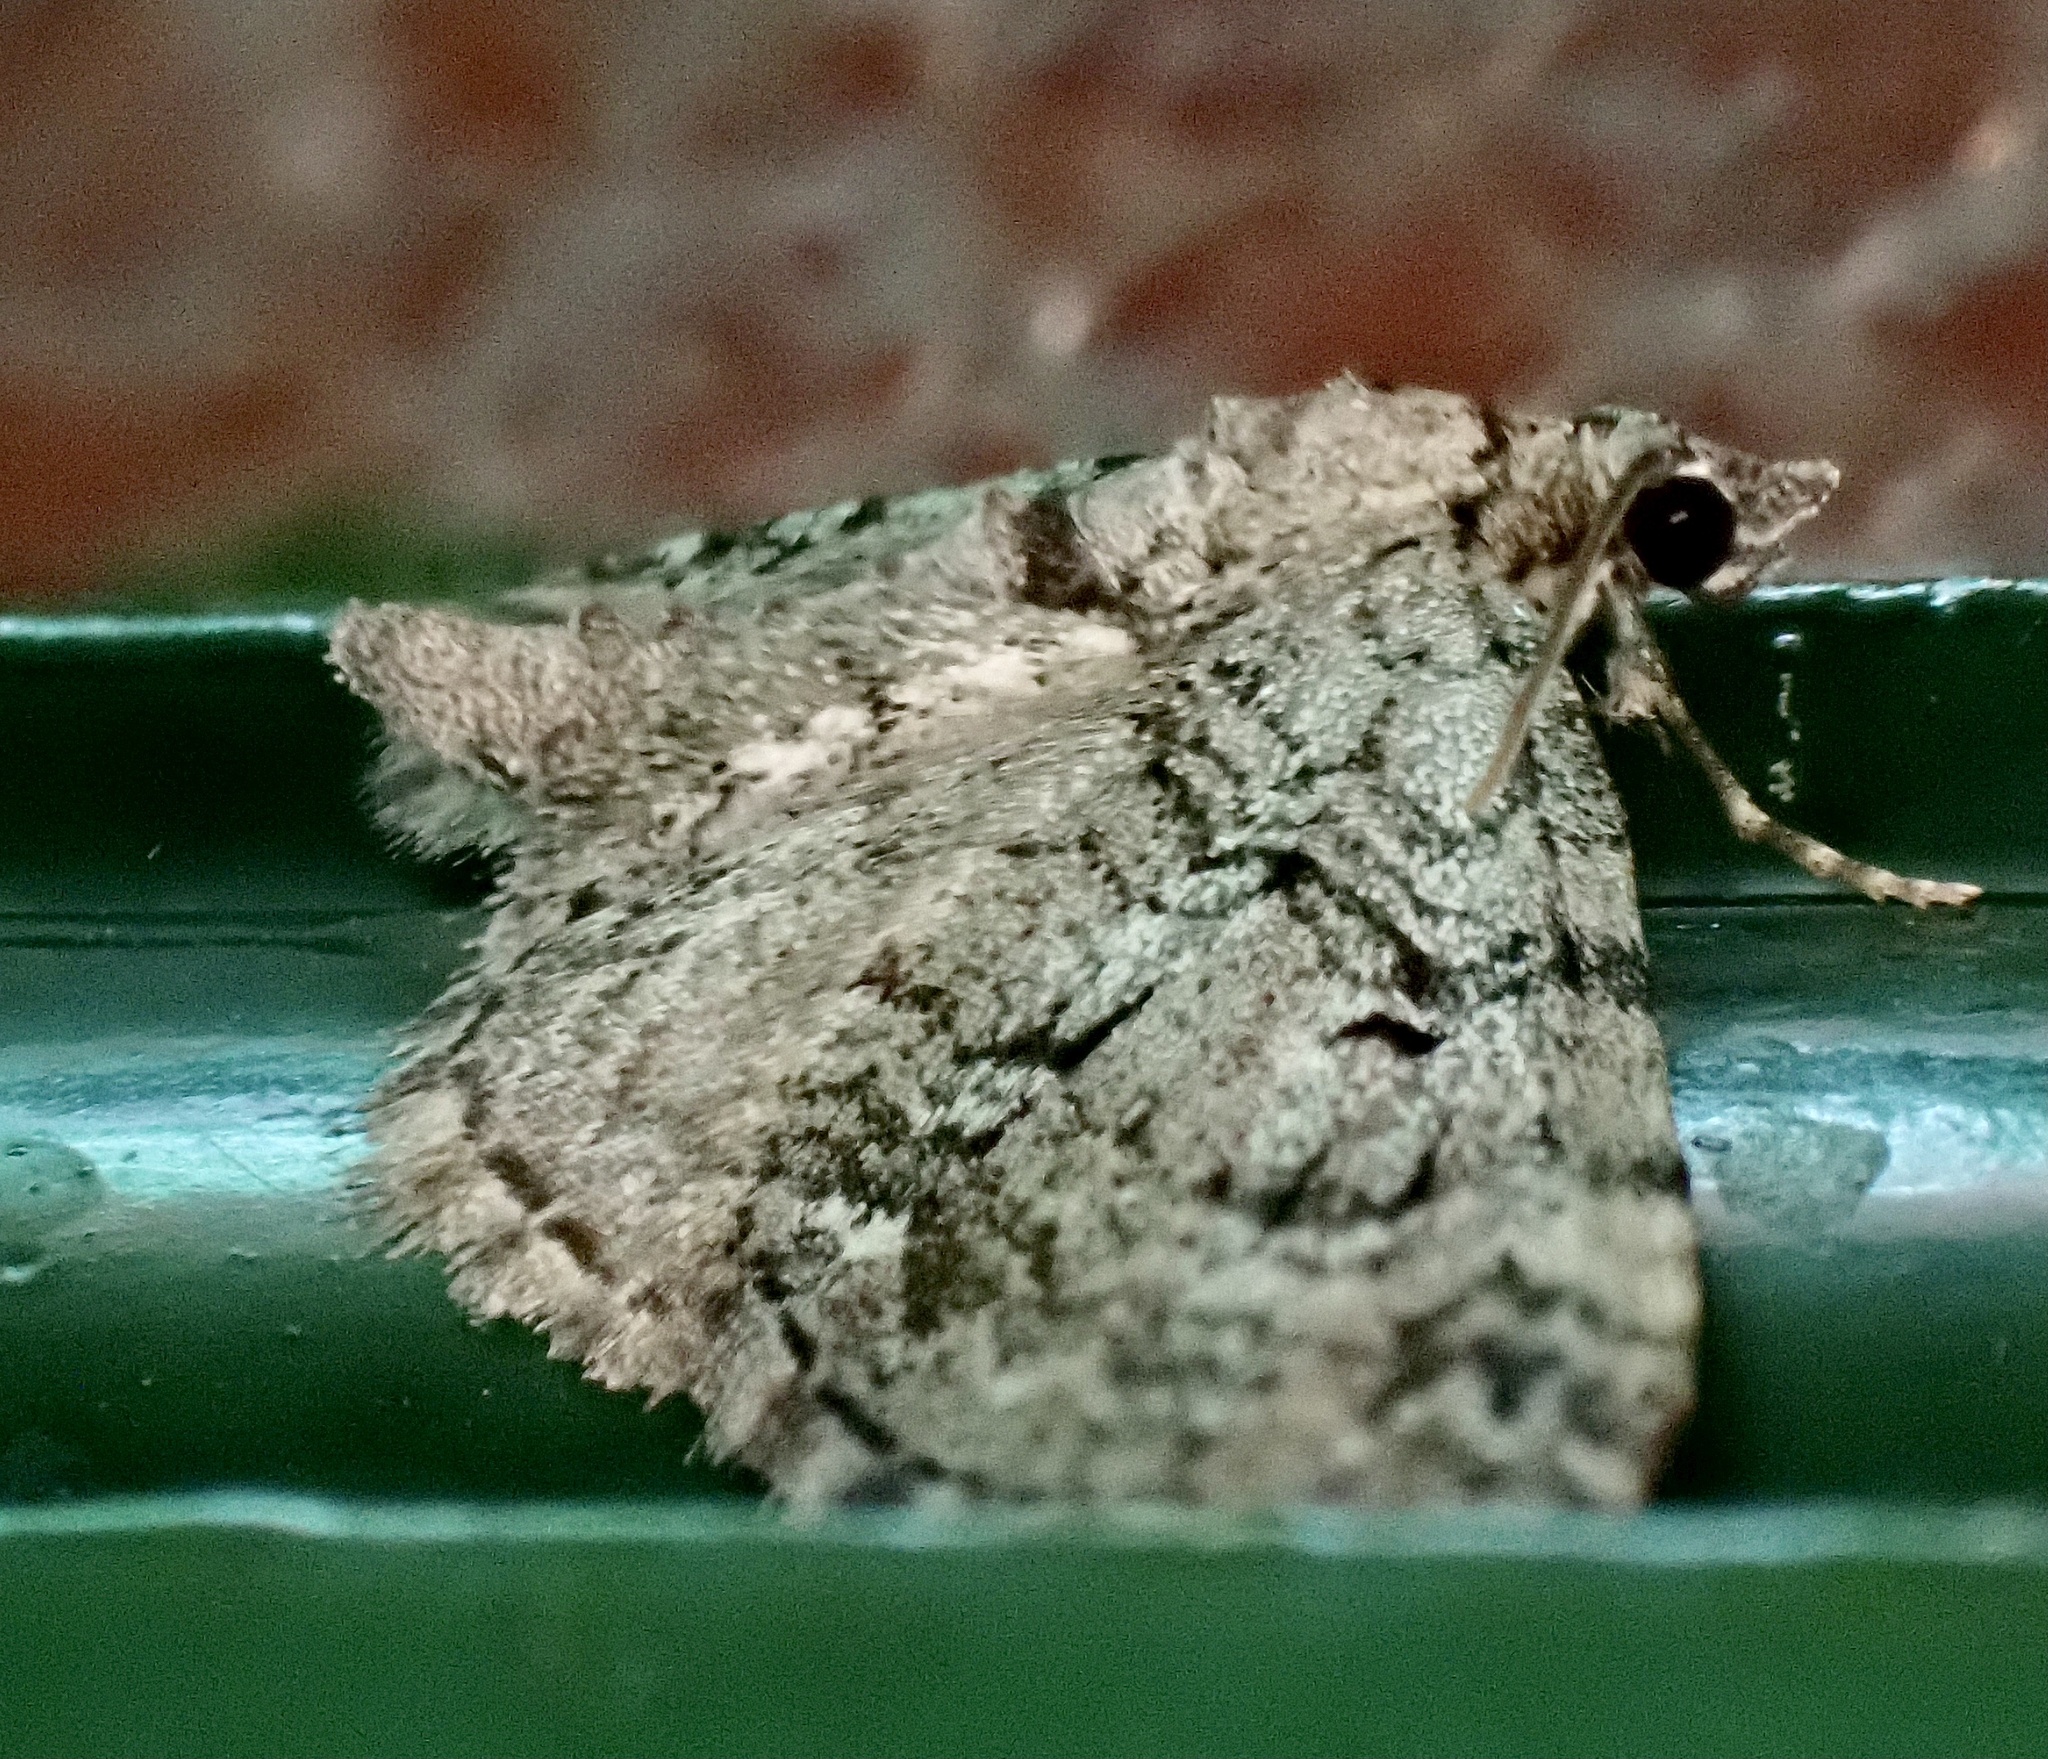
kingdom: Animalia
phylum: Arthropoda
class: Insecta
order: Lepidoptera
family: Geometridae
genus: Pasiphila
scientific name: Pasiphila rectangulata
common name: Green pug
